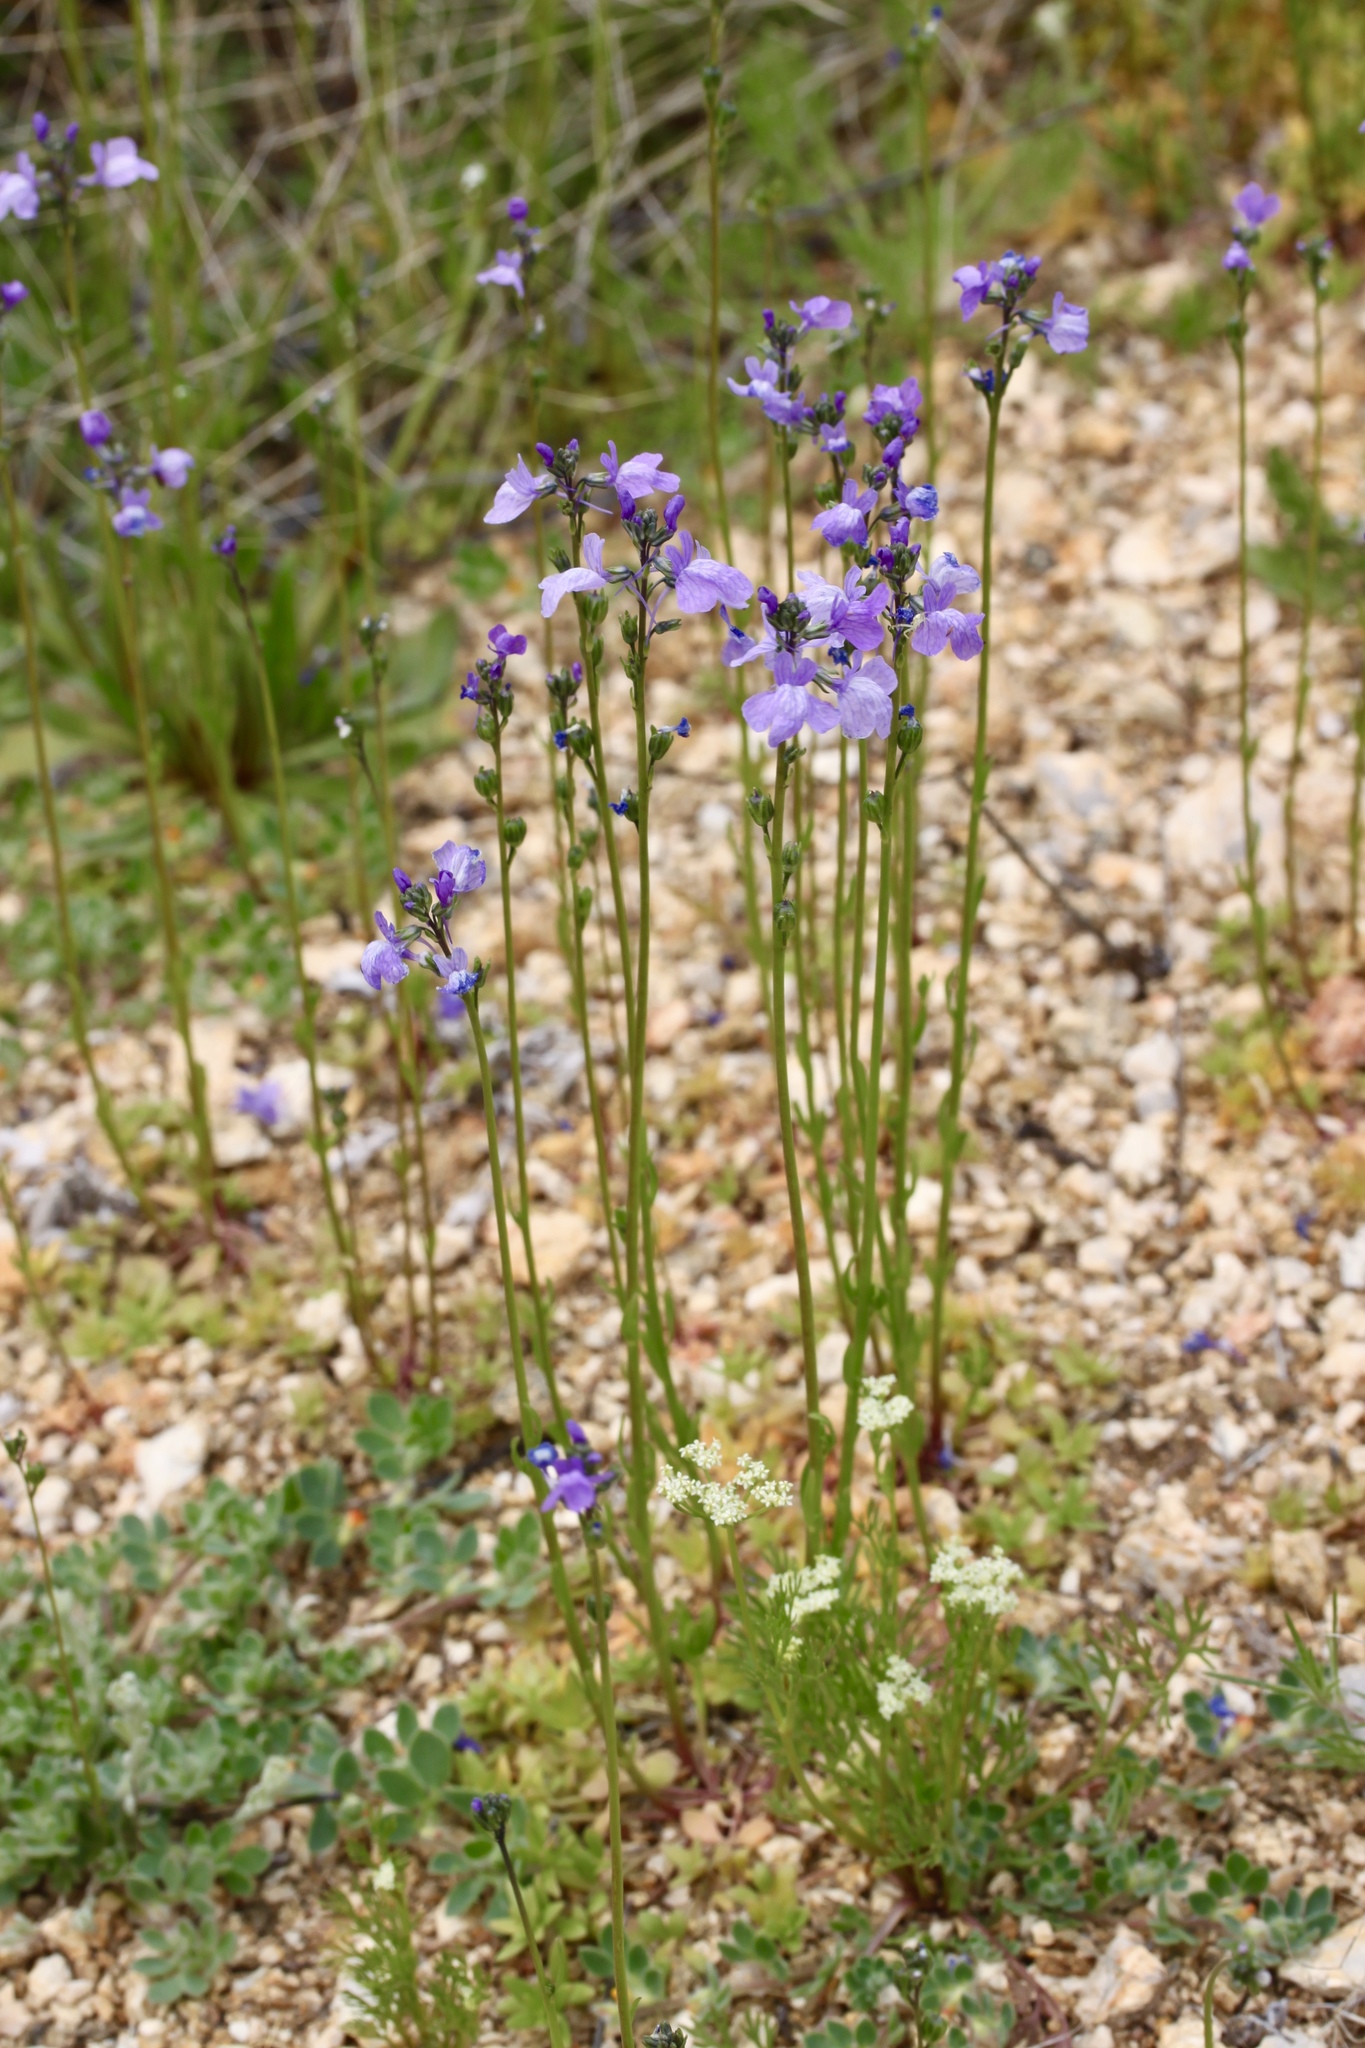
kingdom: Plantae
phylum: Tracheophyta
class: Magnoliopsida
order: Lamiales
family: Plantaginaceae
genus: Nuttallanthus
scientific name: Nuttallanthus texanus
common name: Texas toadflax
